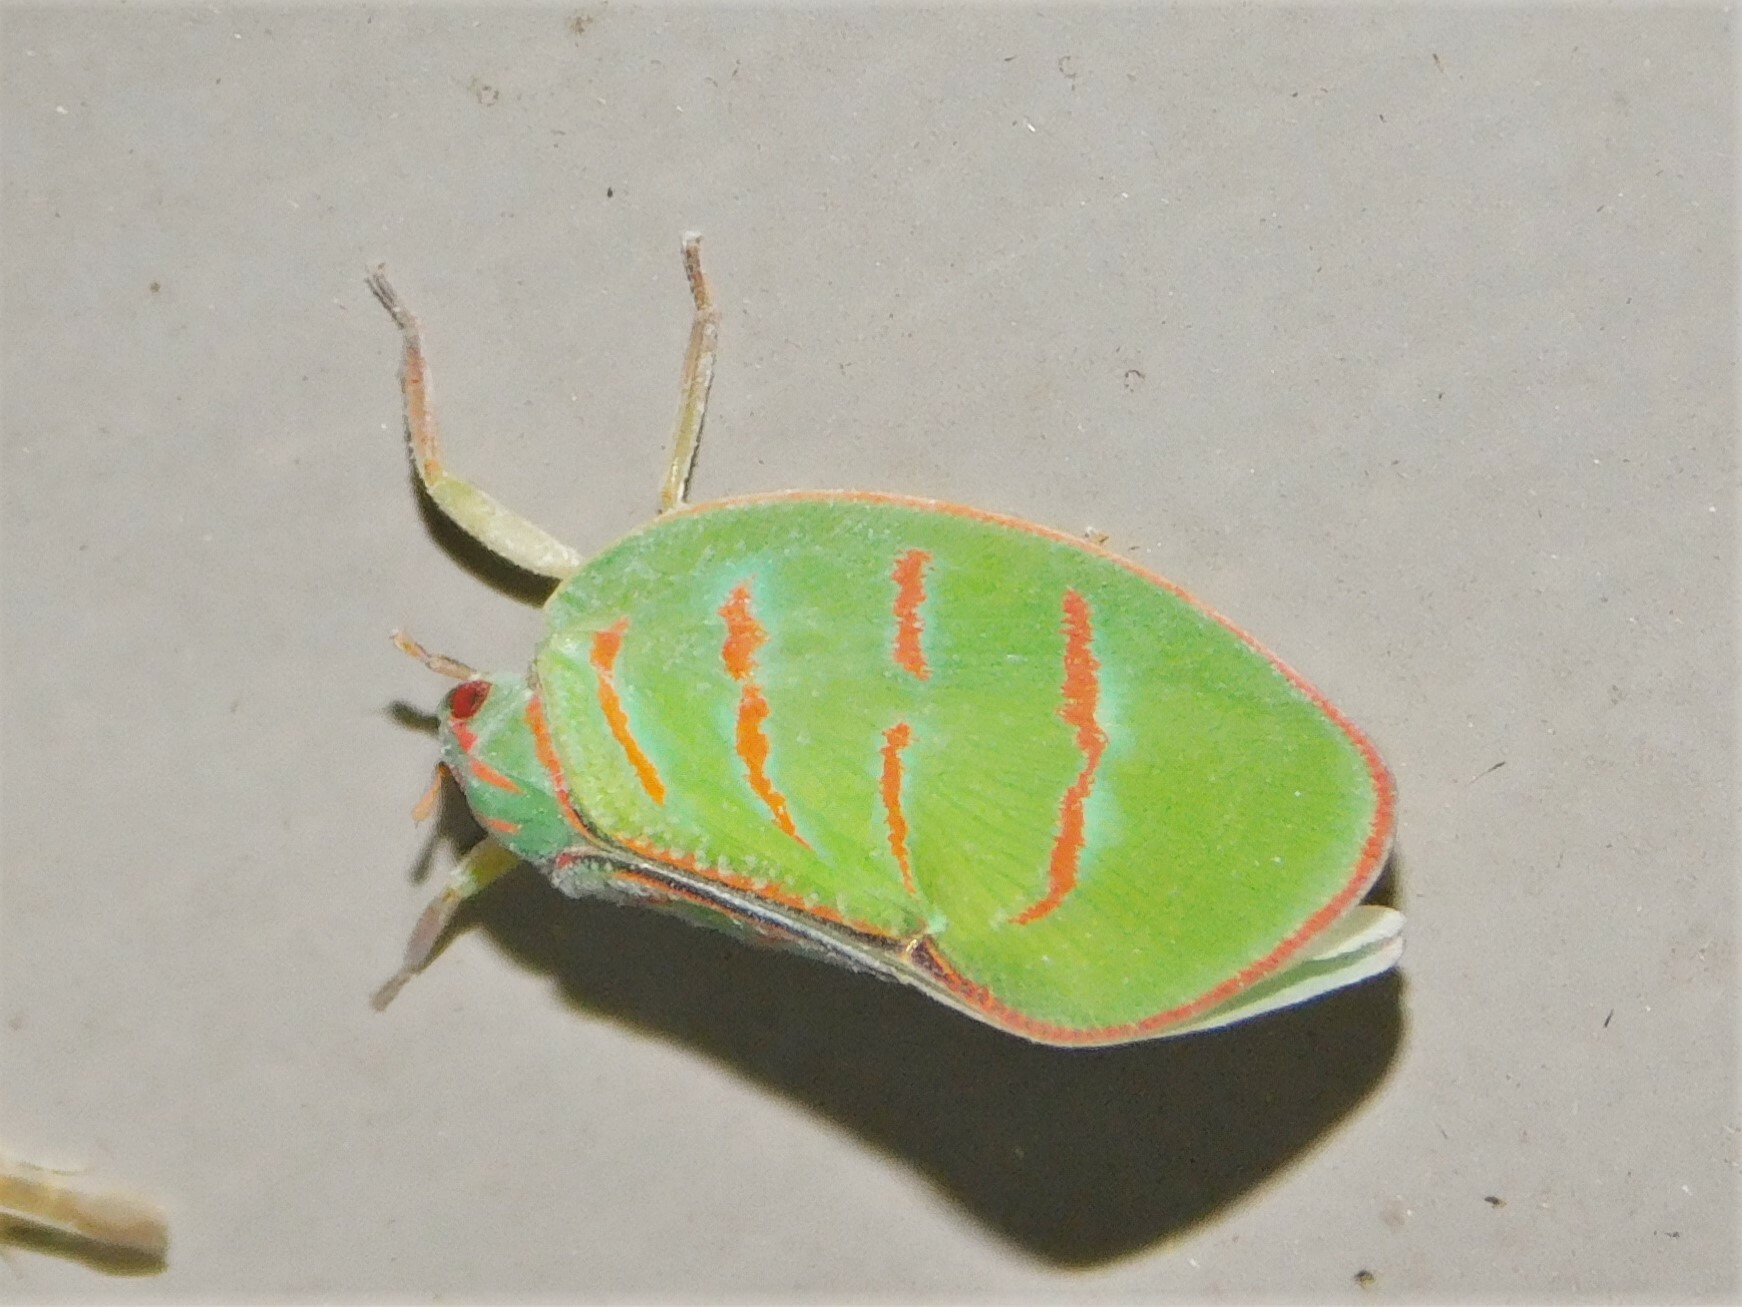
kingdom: Animalia
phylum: Arthropoda
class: Insecta
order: Hemiptera
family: Flatidae
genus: Flatina
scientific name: Flatina liciata
